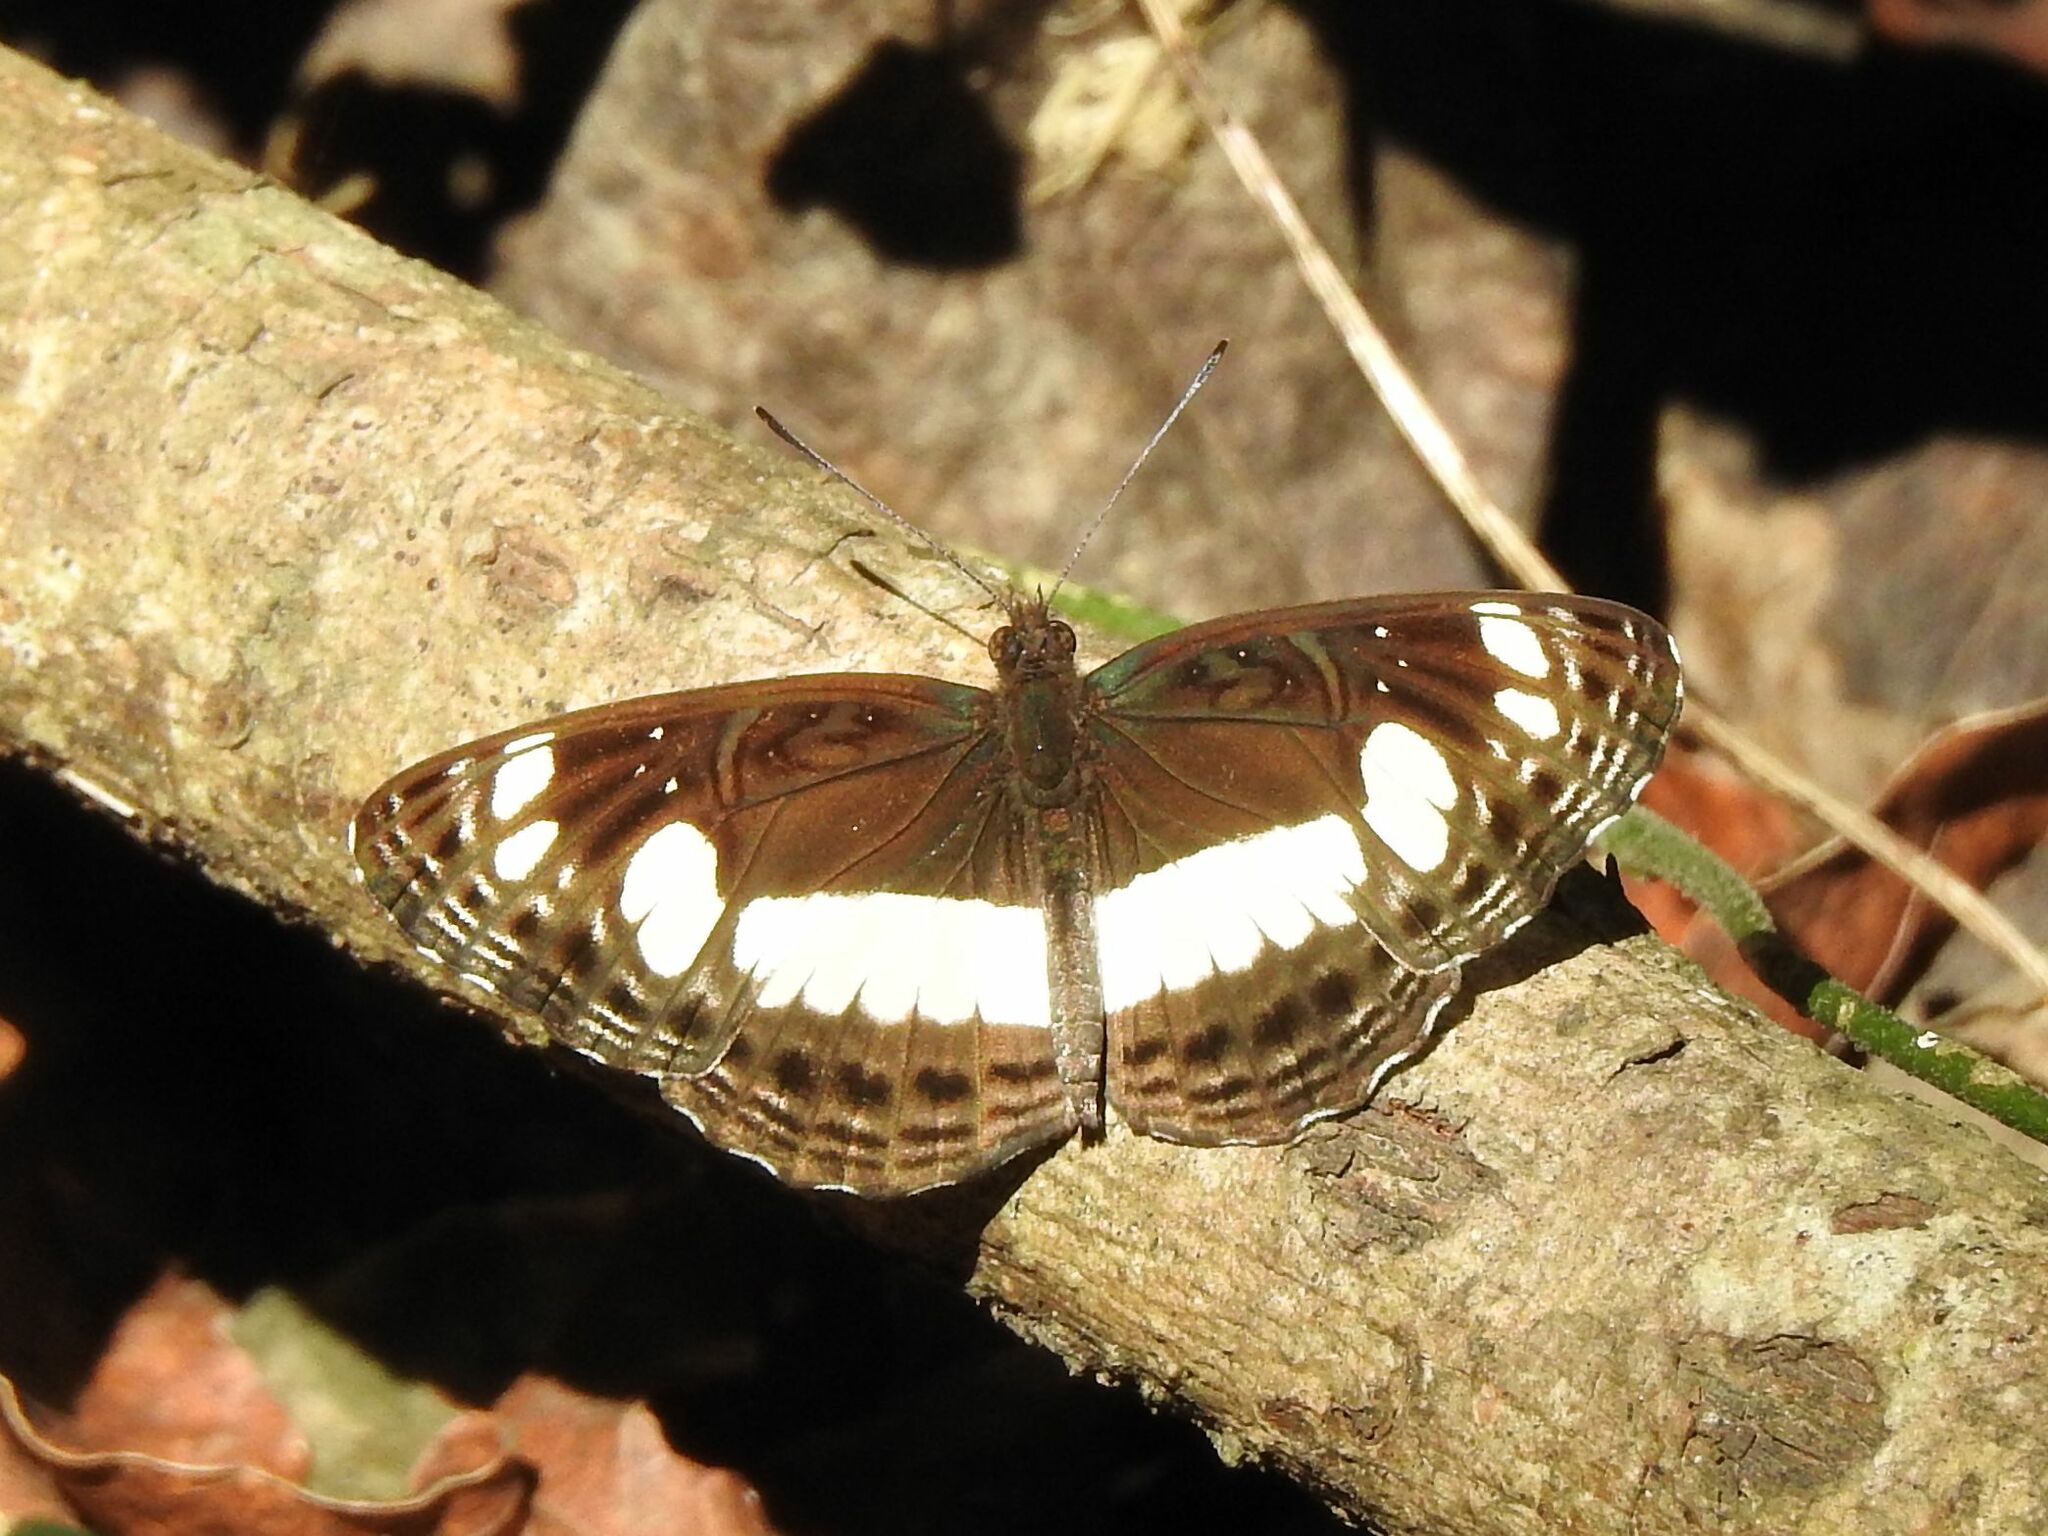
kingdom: Animalia
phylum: Arthropoda
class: Insecta
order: Lepidoptera
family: Nymphalidae
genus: Neptis
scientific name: Neptis saclava
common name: Small spotted sailor
